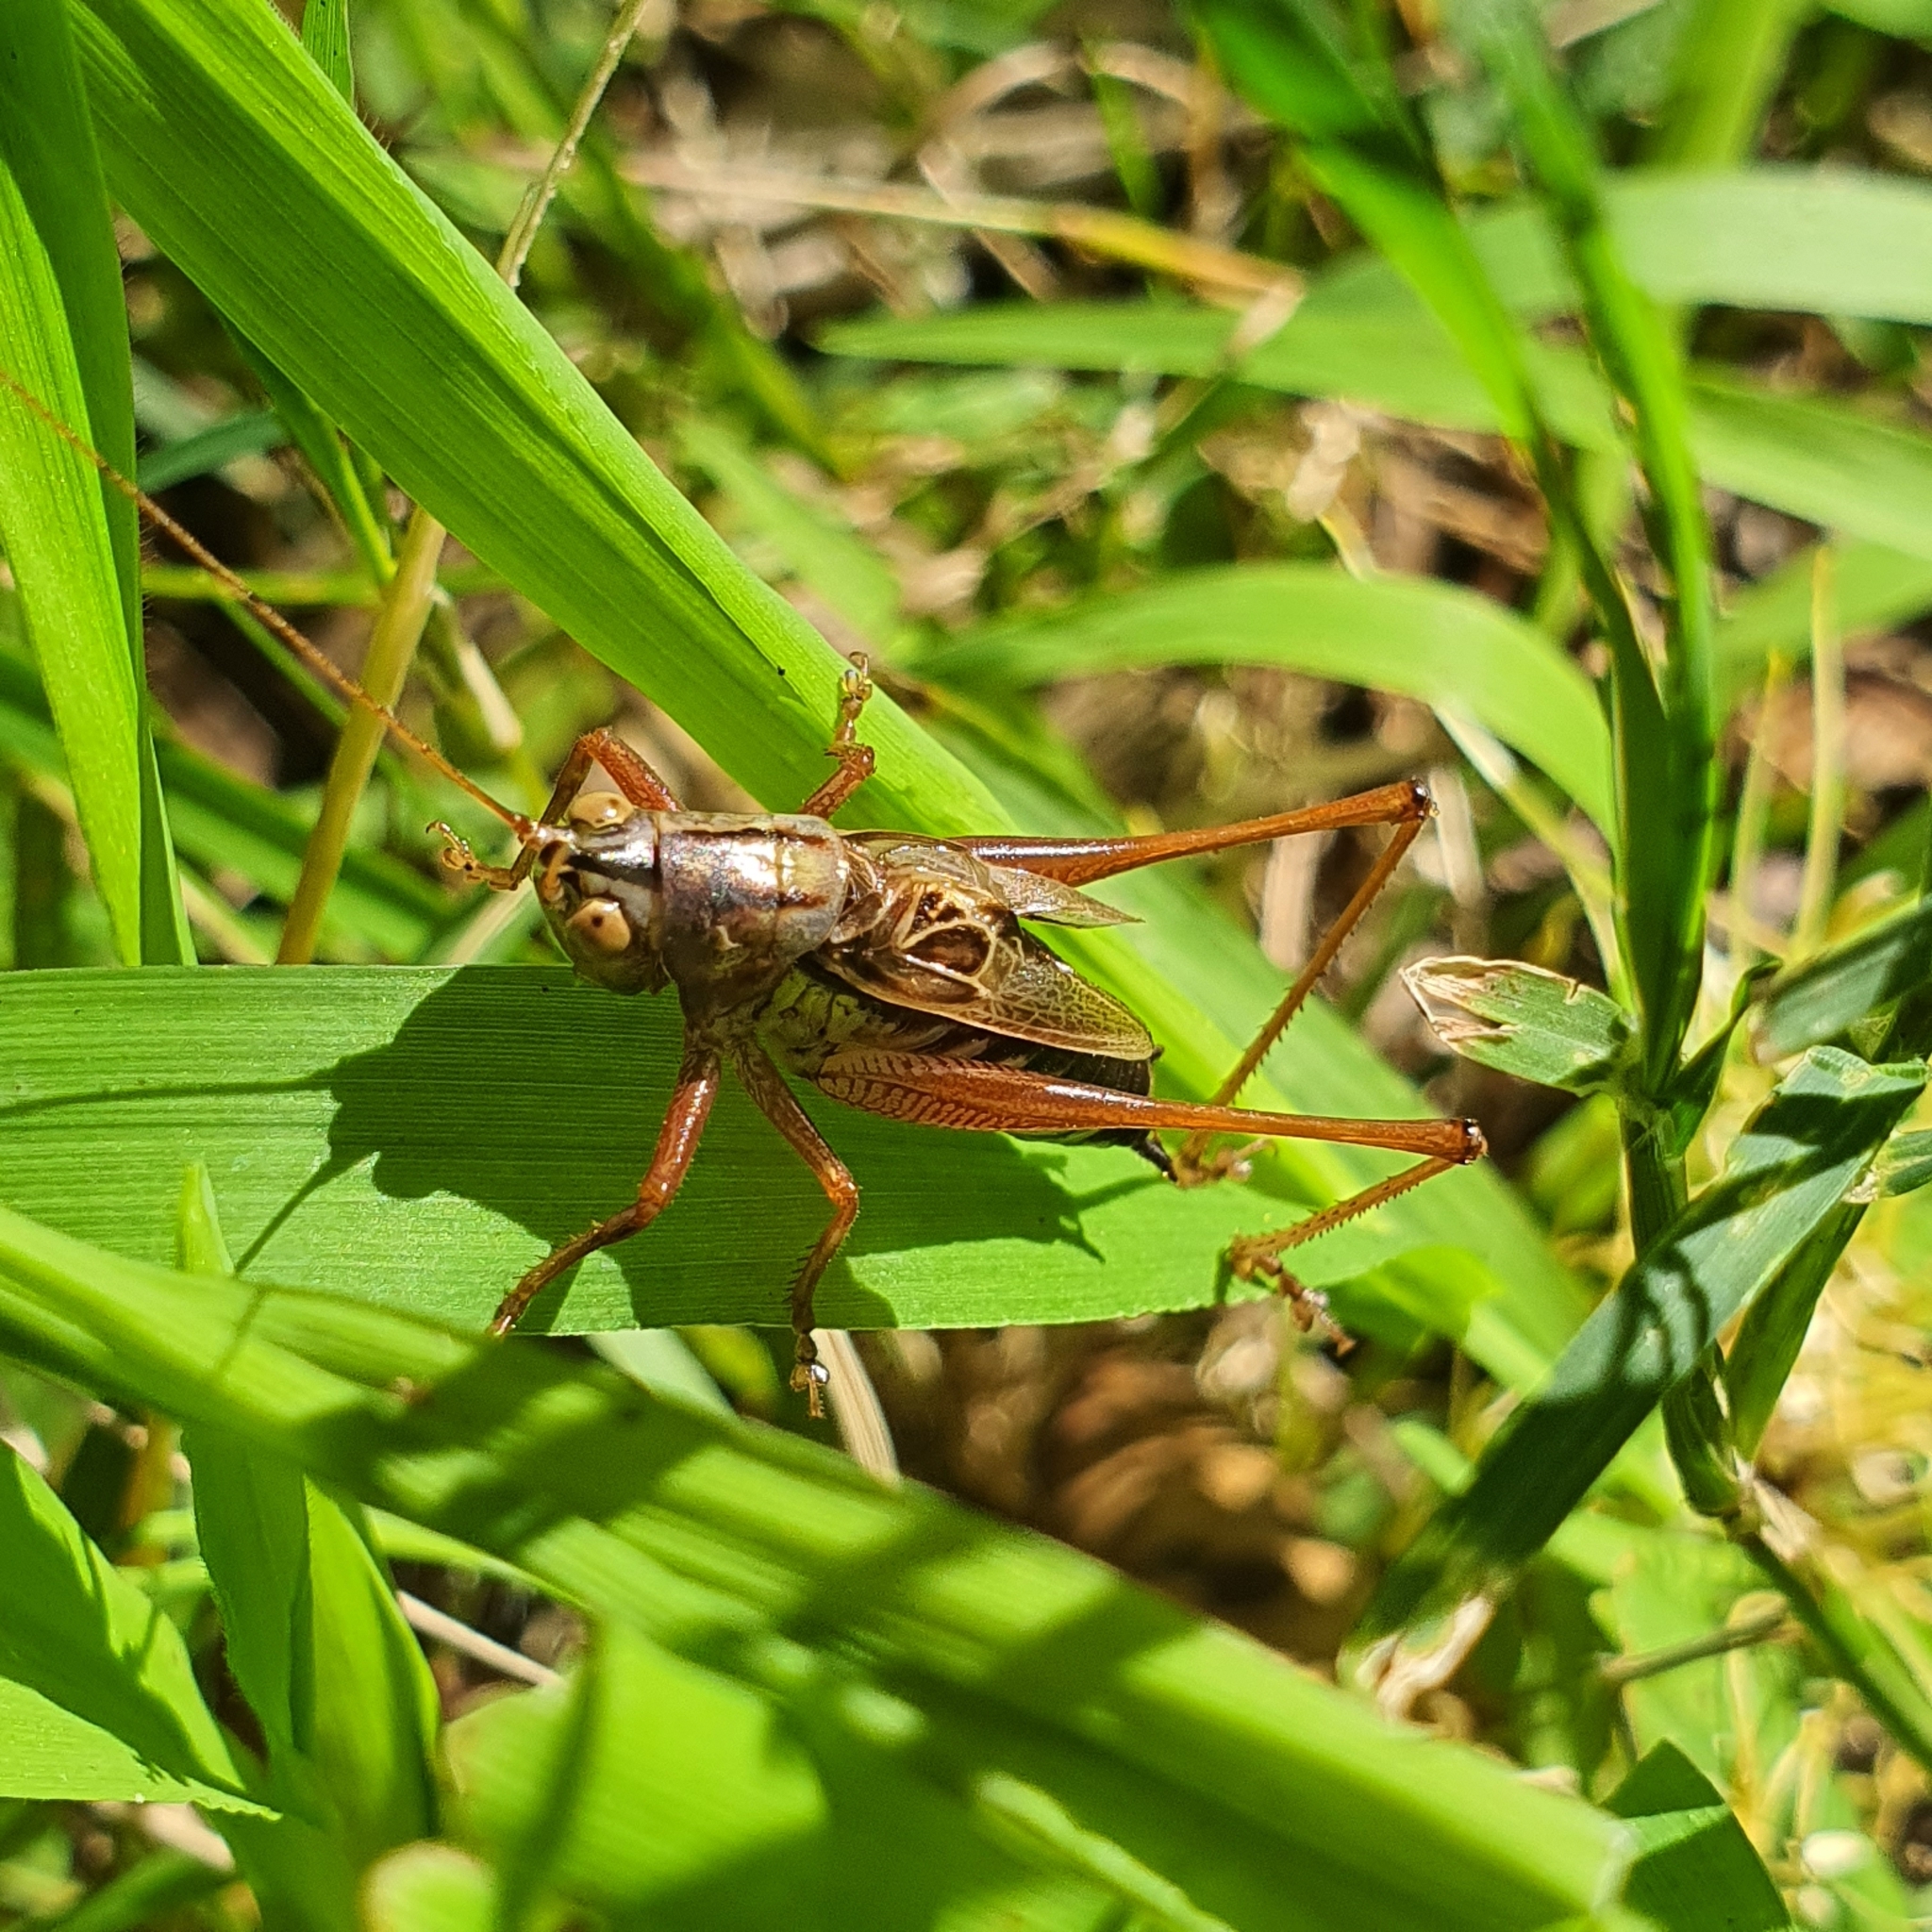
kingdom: Animalia
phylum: Arthropoda
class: Insecta
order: Orthoptera
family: Tettigoniidae
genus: Conocephalus
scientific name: Conocephalus semivittatus
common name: Blackish meadow katydid
